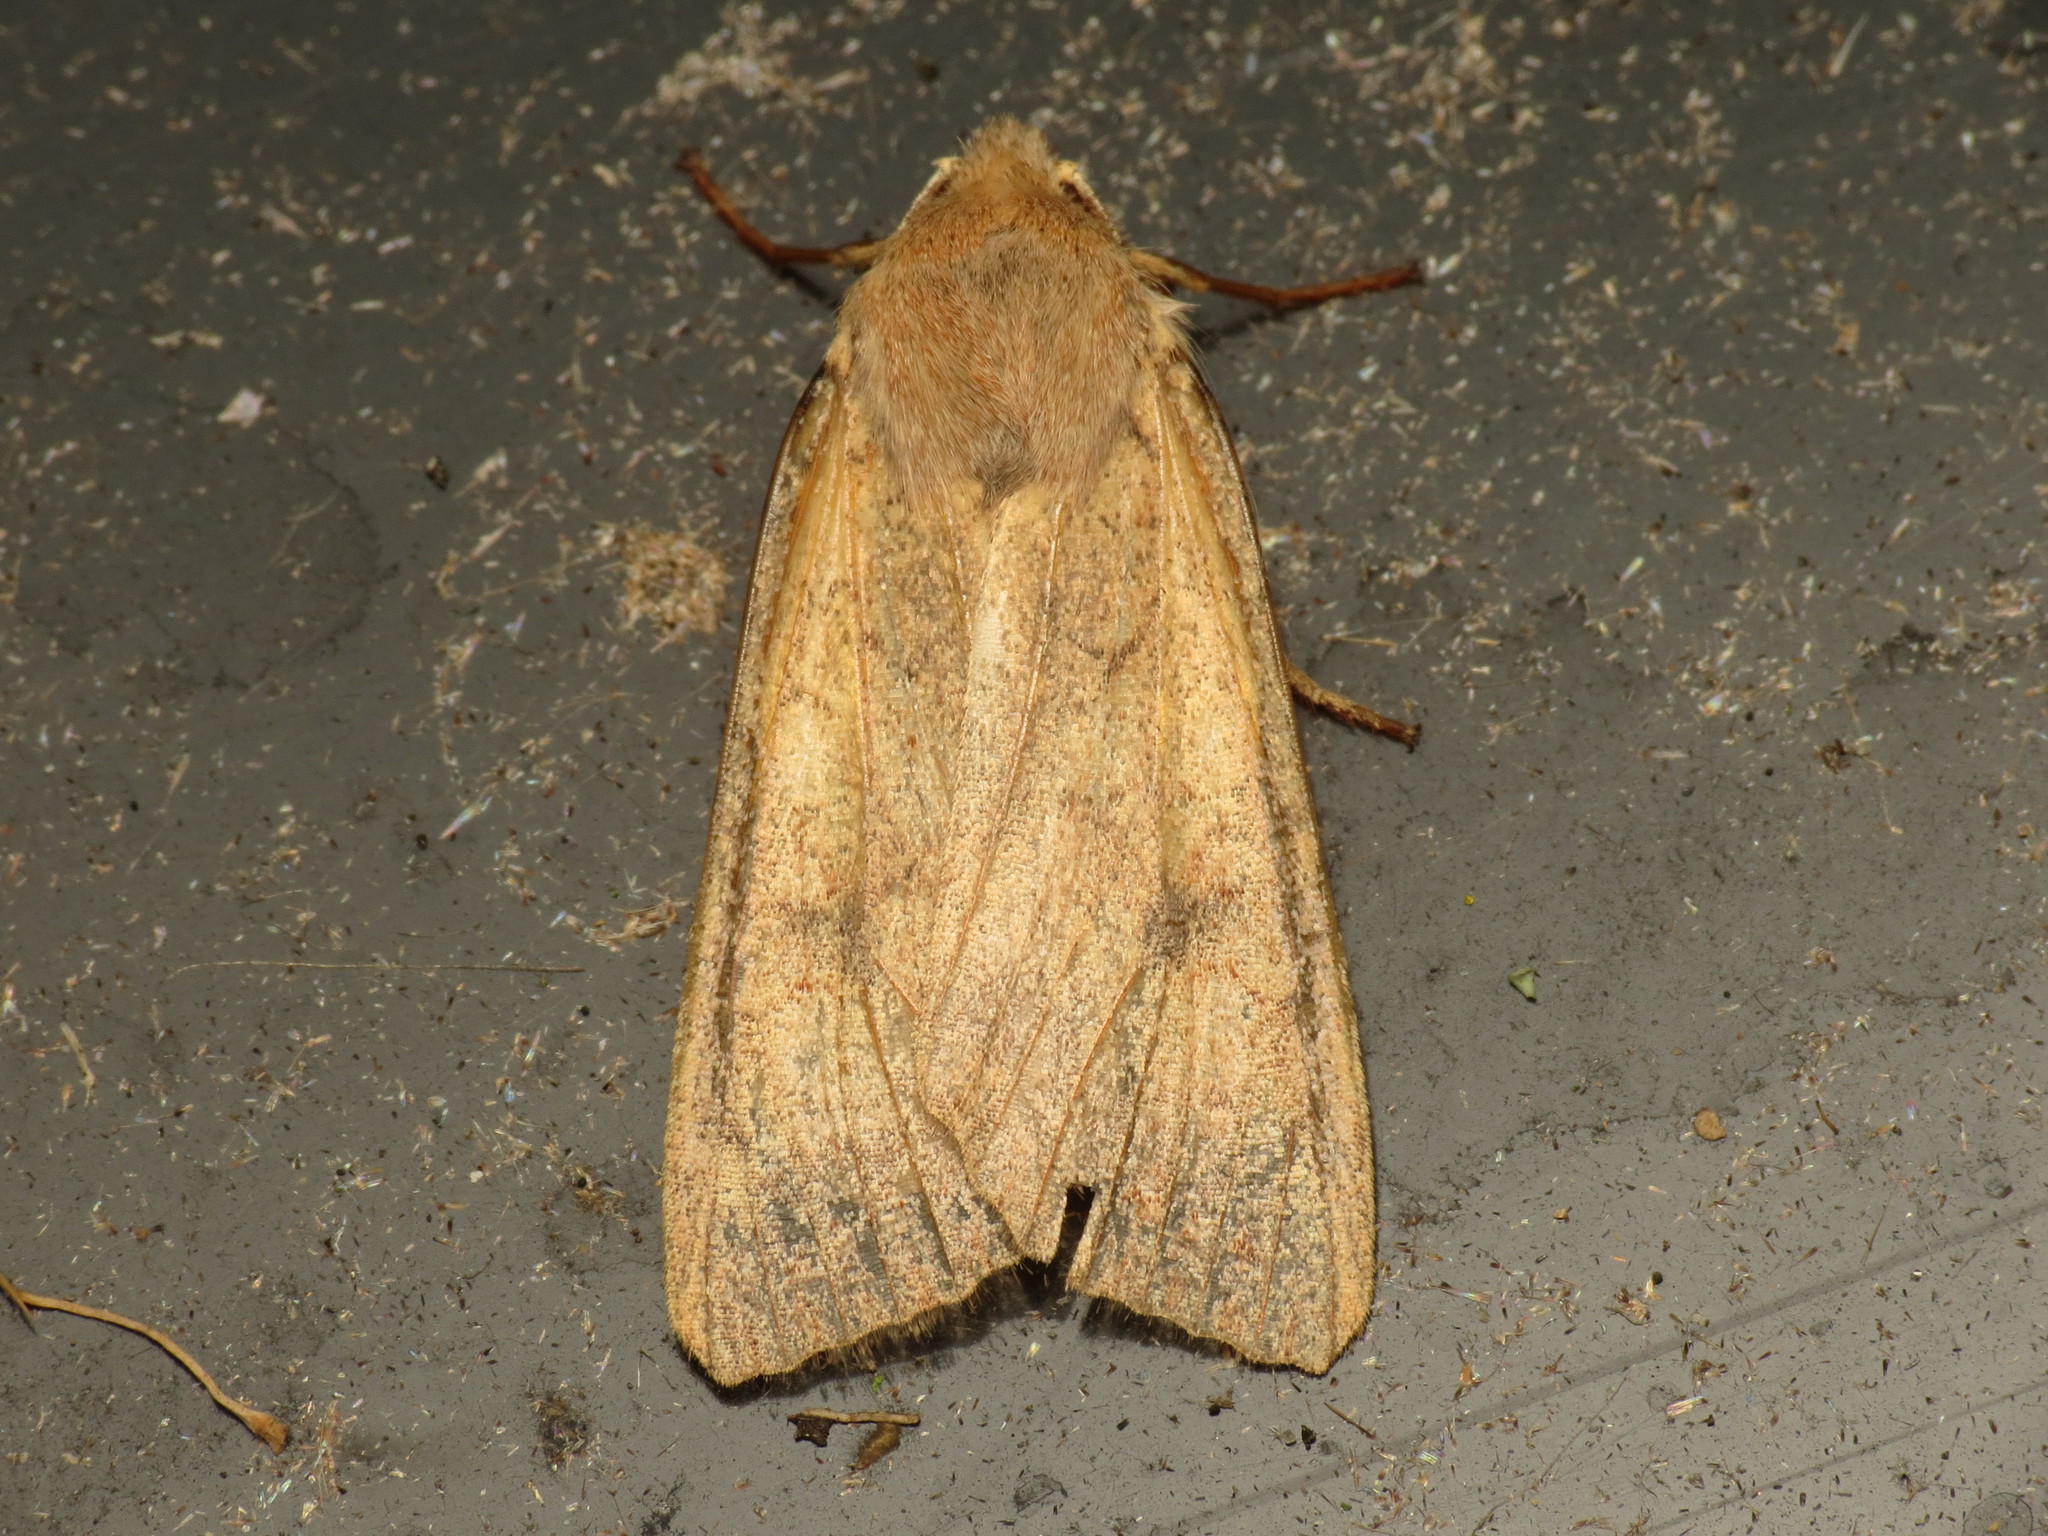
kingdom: Animalia
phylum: Arthropoda
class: Insecta
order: Lepidoptera
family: Noctuidae
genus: Sunira
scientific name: Sunira circellaris
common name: Brick
